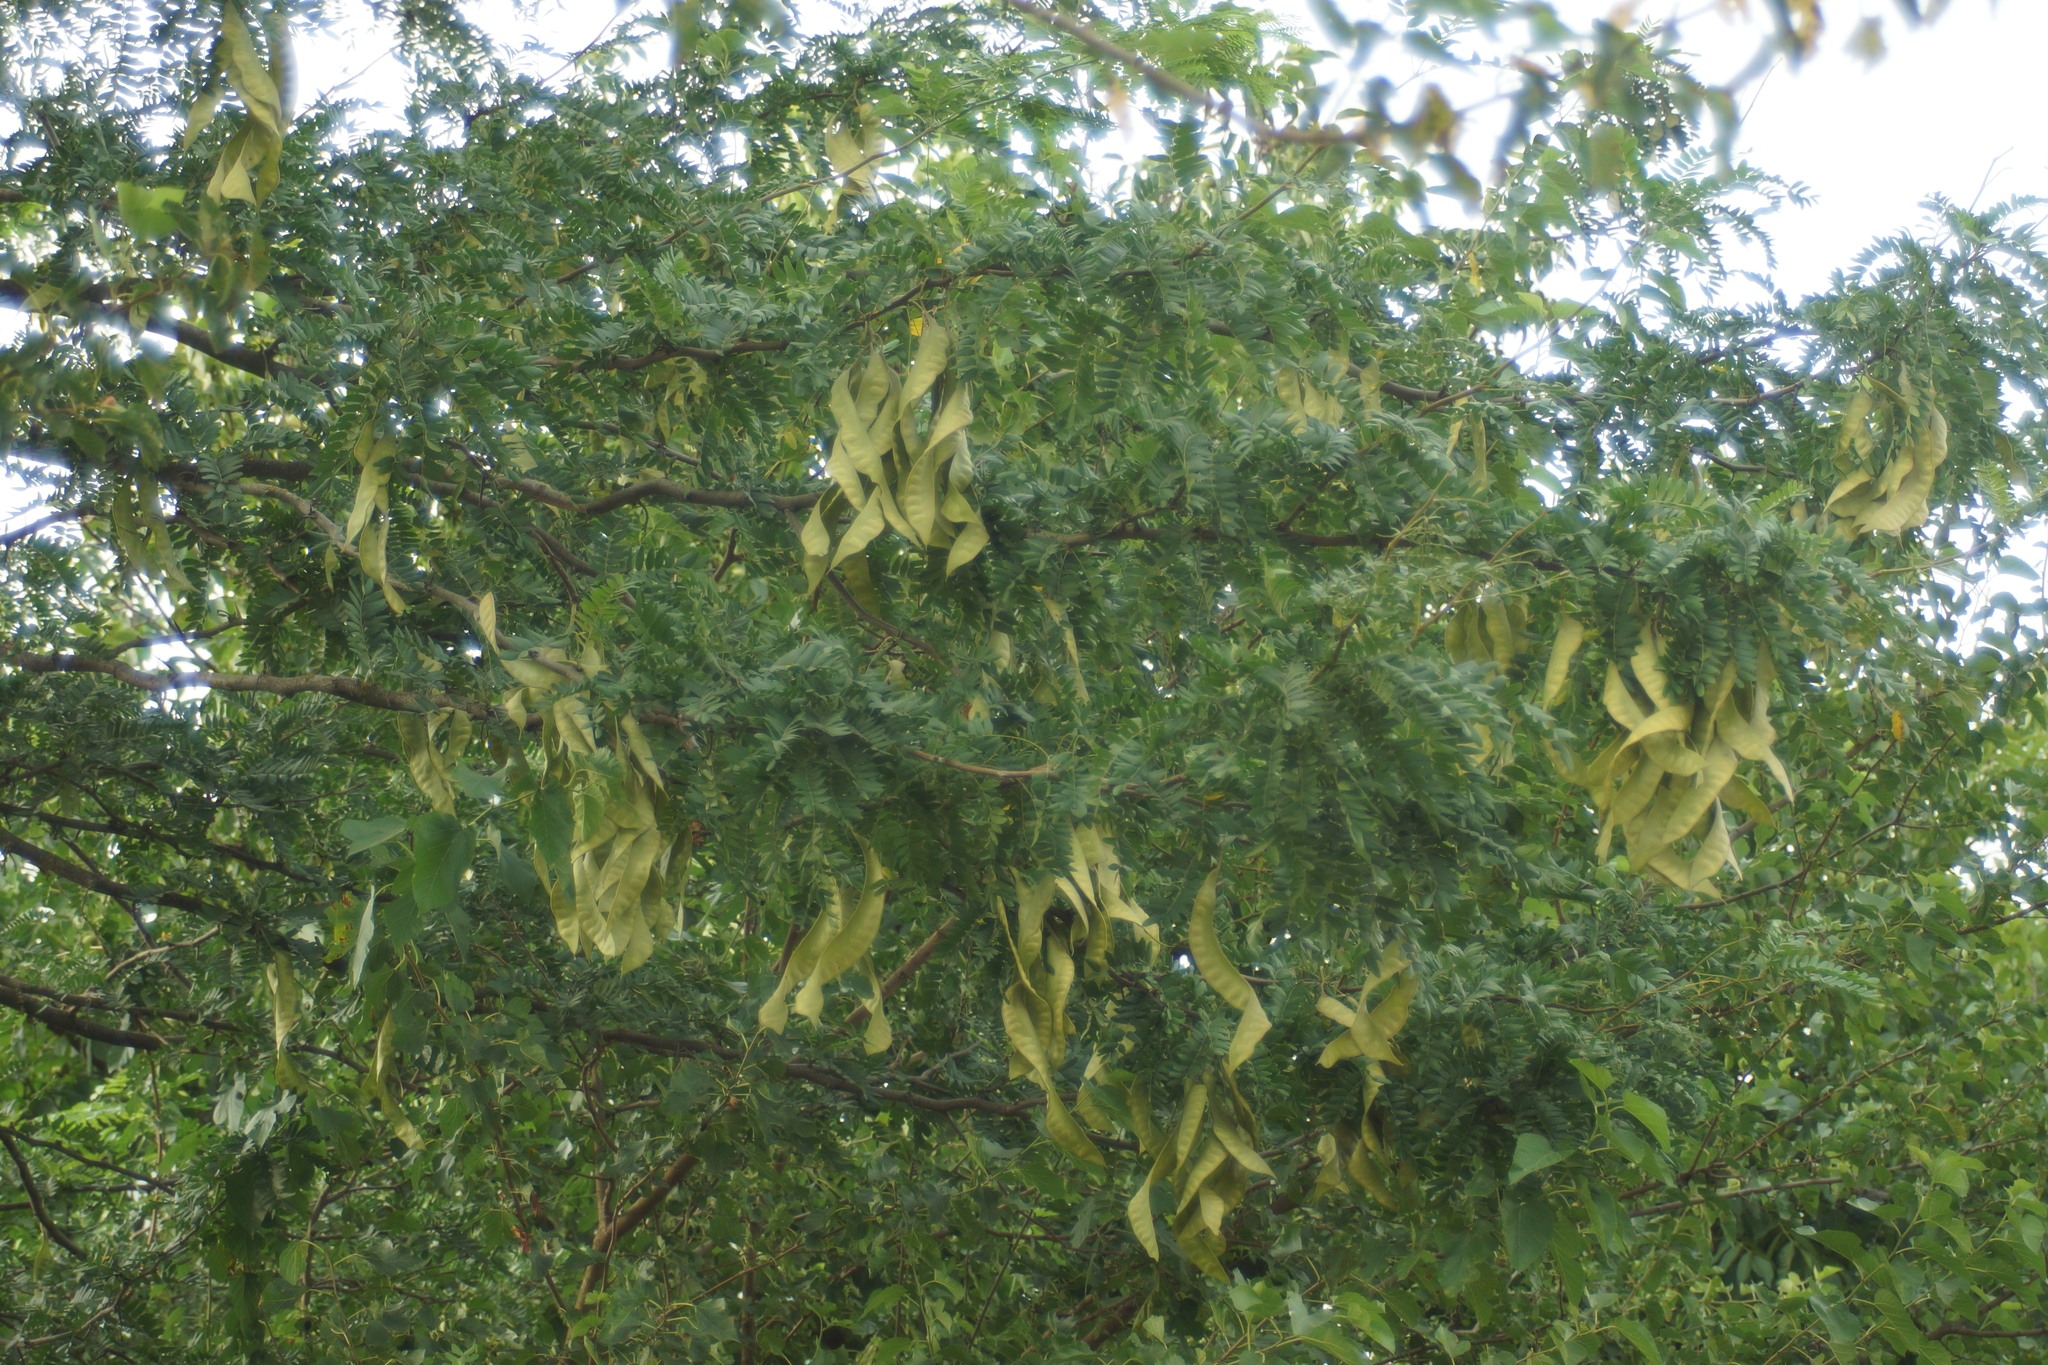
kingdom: Plantae
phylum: Tracheophyta
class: Magnoliopsida
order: Fabales
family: Fabaceae
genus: Gleditsia
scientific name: Gleditsia triacanthos
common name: Common honeylocust
